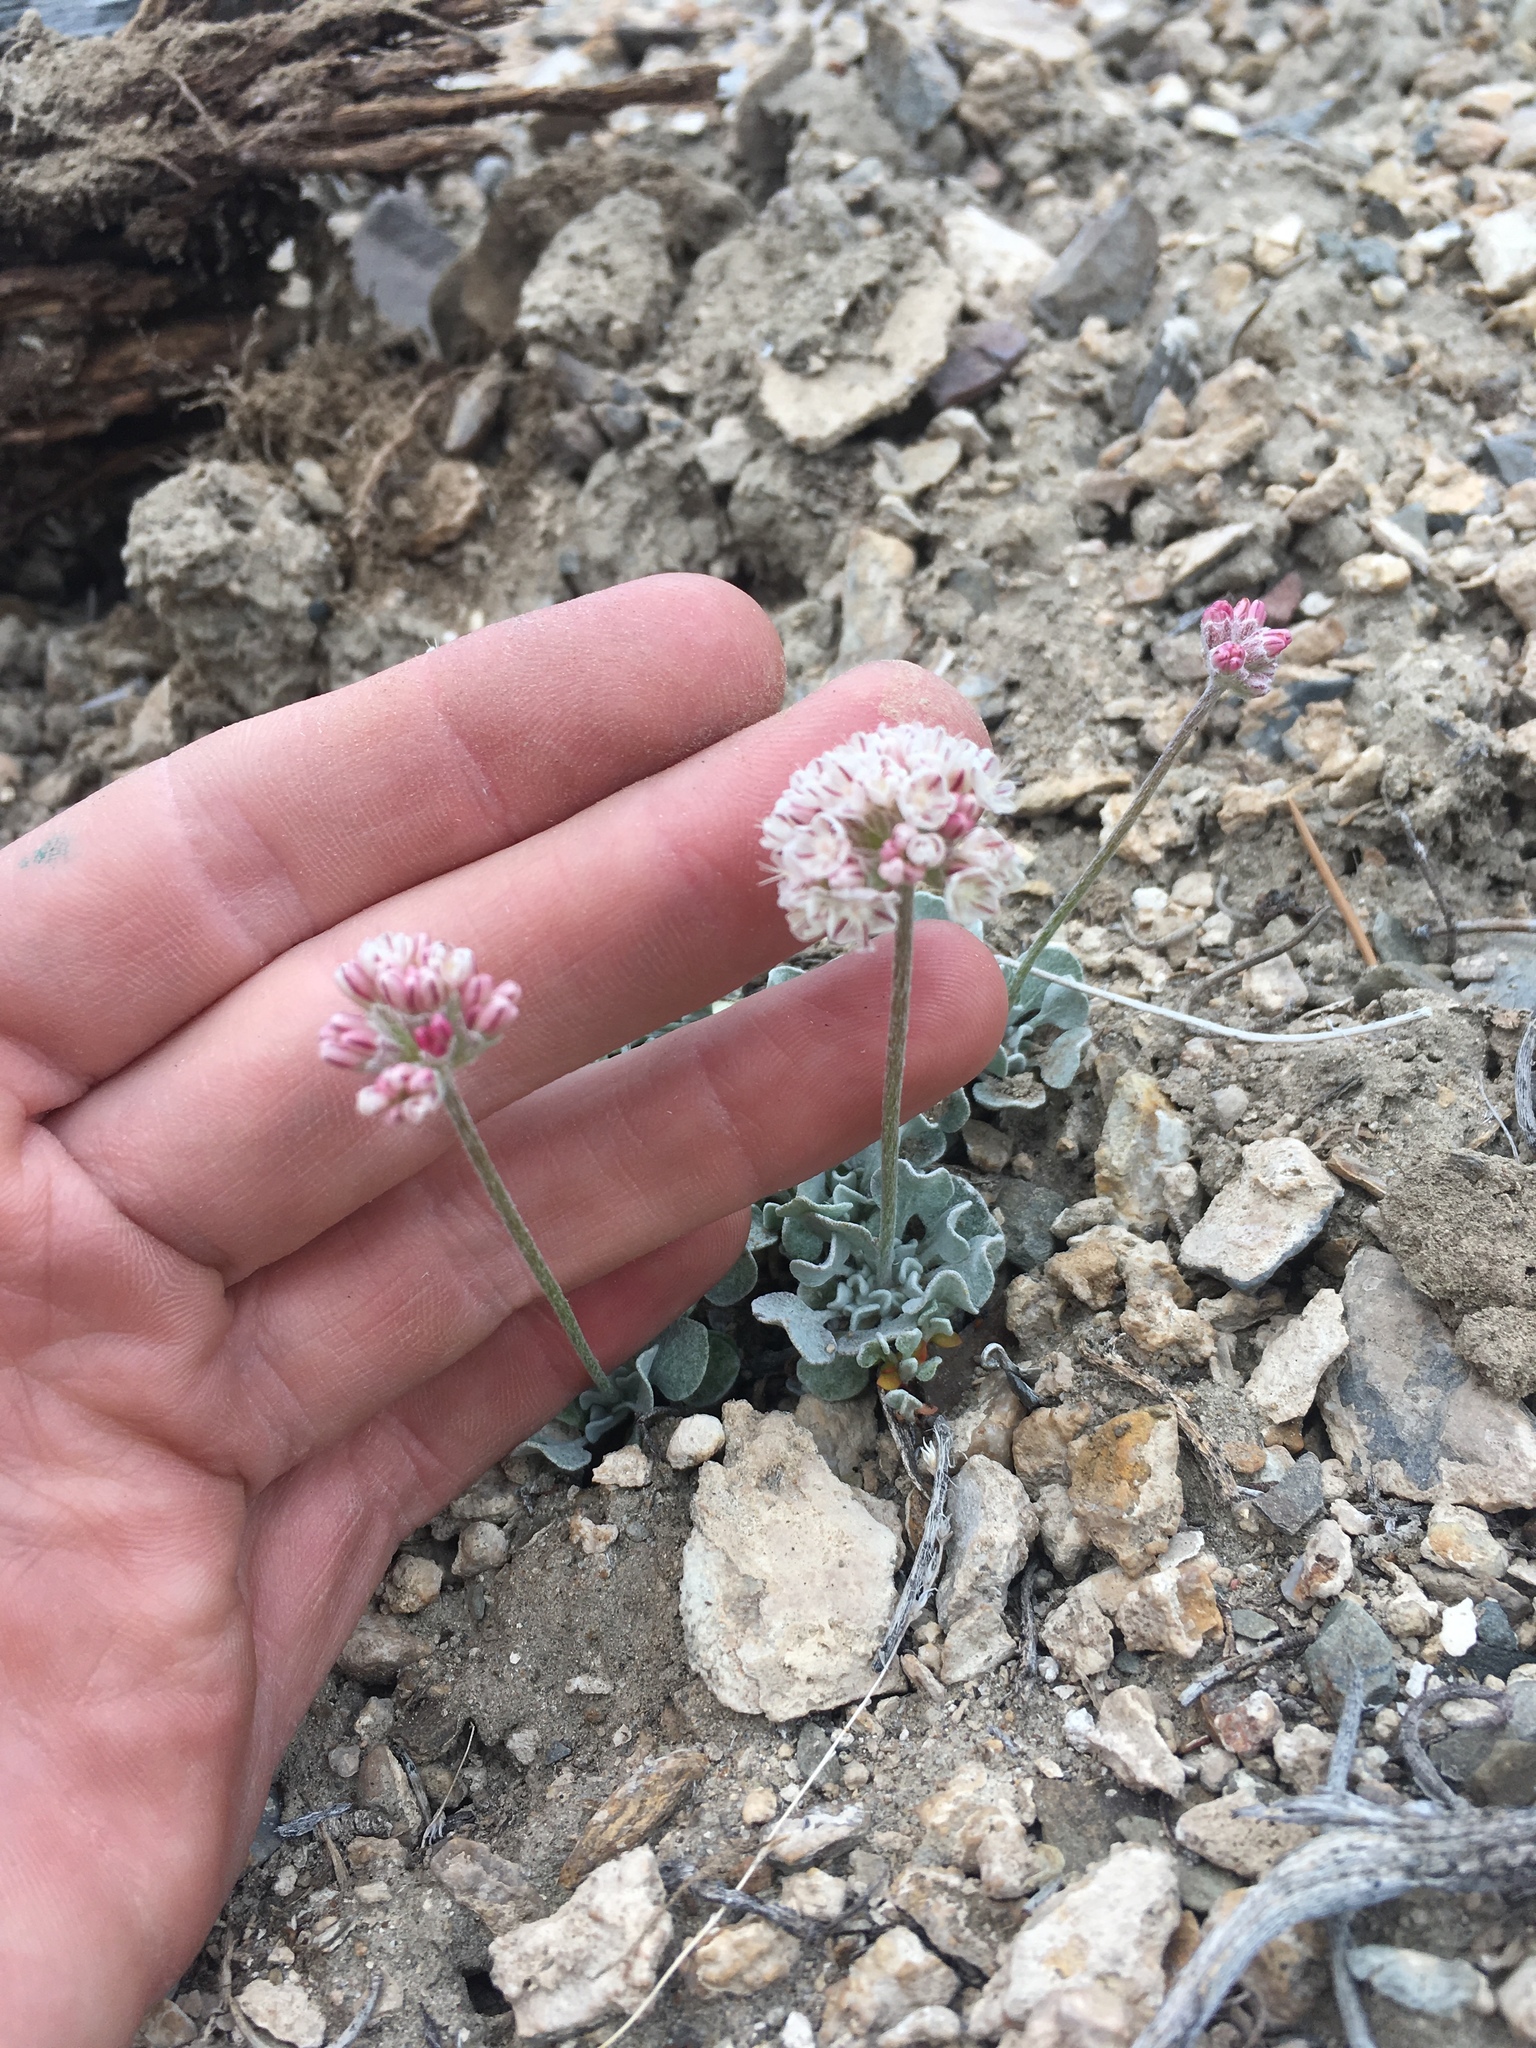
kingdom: Plantae
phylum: Tracheophyta
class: Magnoliopsida
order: Caryophyllales
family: Polygonaceae
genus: Eriogonum
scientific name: Eriogonum ovalifolium
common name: Cushion buckwheat
